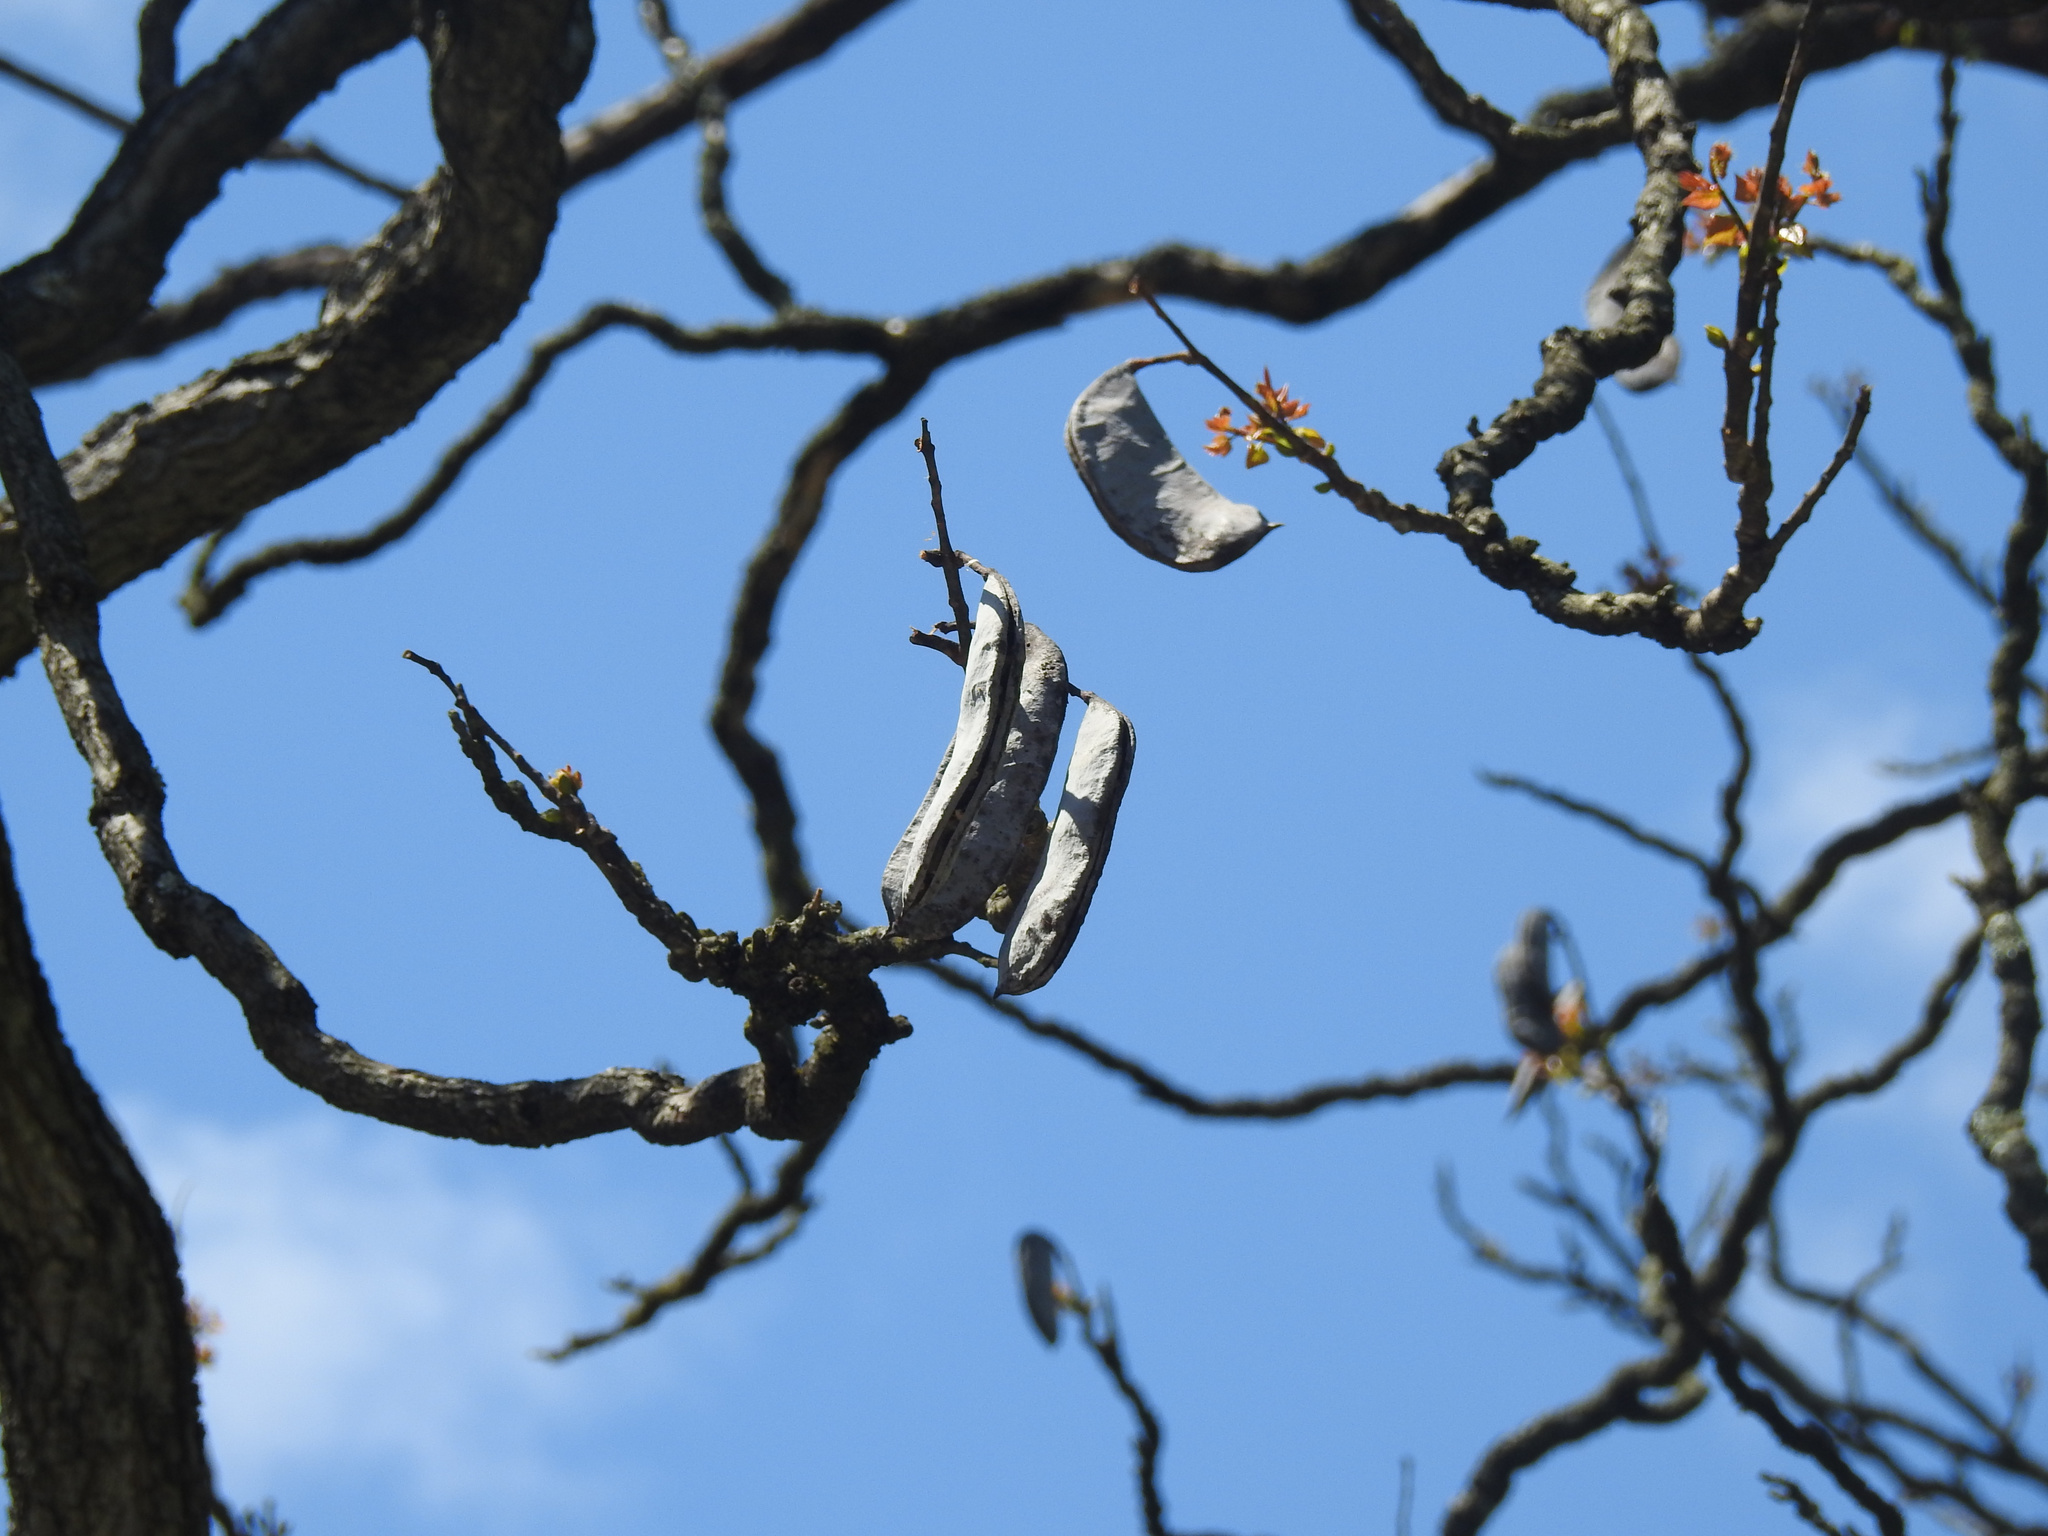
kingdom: Plantae
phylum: Tracheophyta
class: Magnoliopsida
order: Fabales
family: Fabaceae
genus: Gymnocladus
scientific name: Gymnocladus dioicus
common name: Kentucky coffee-tree
